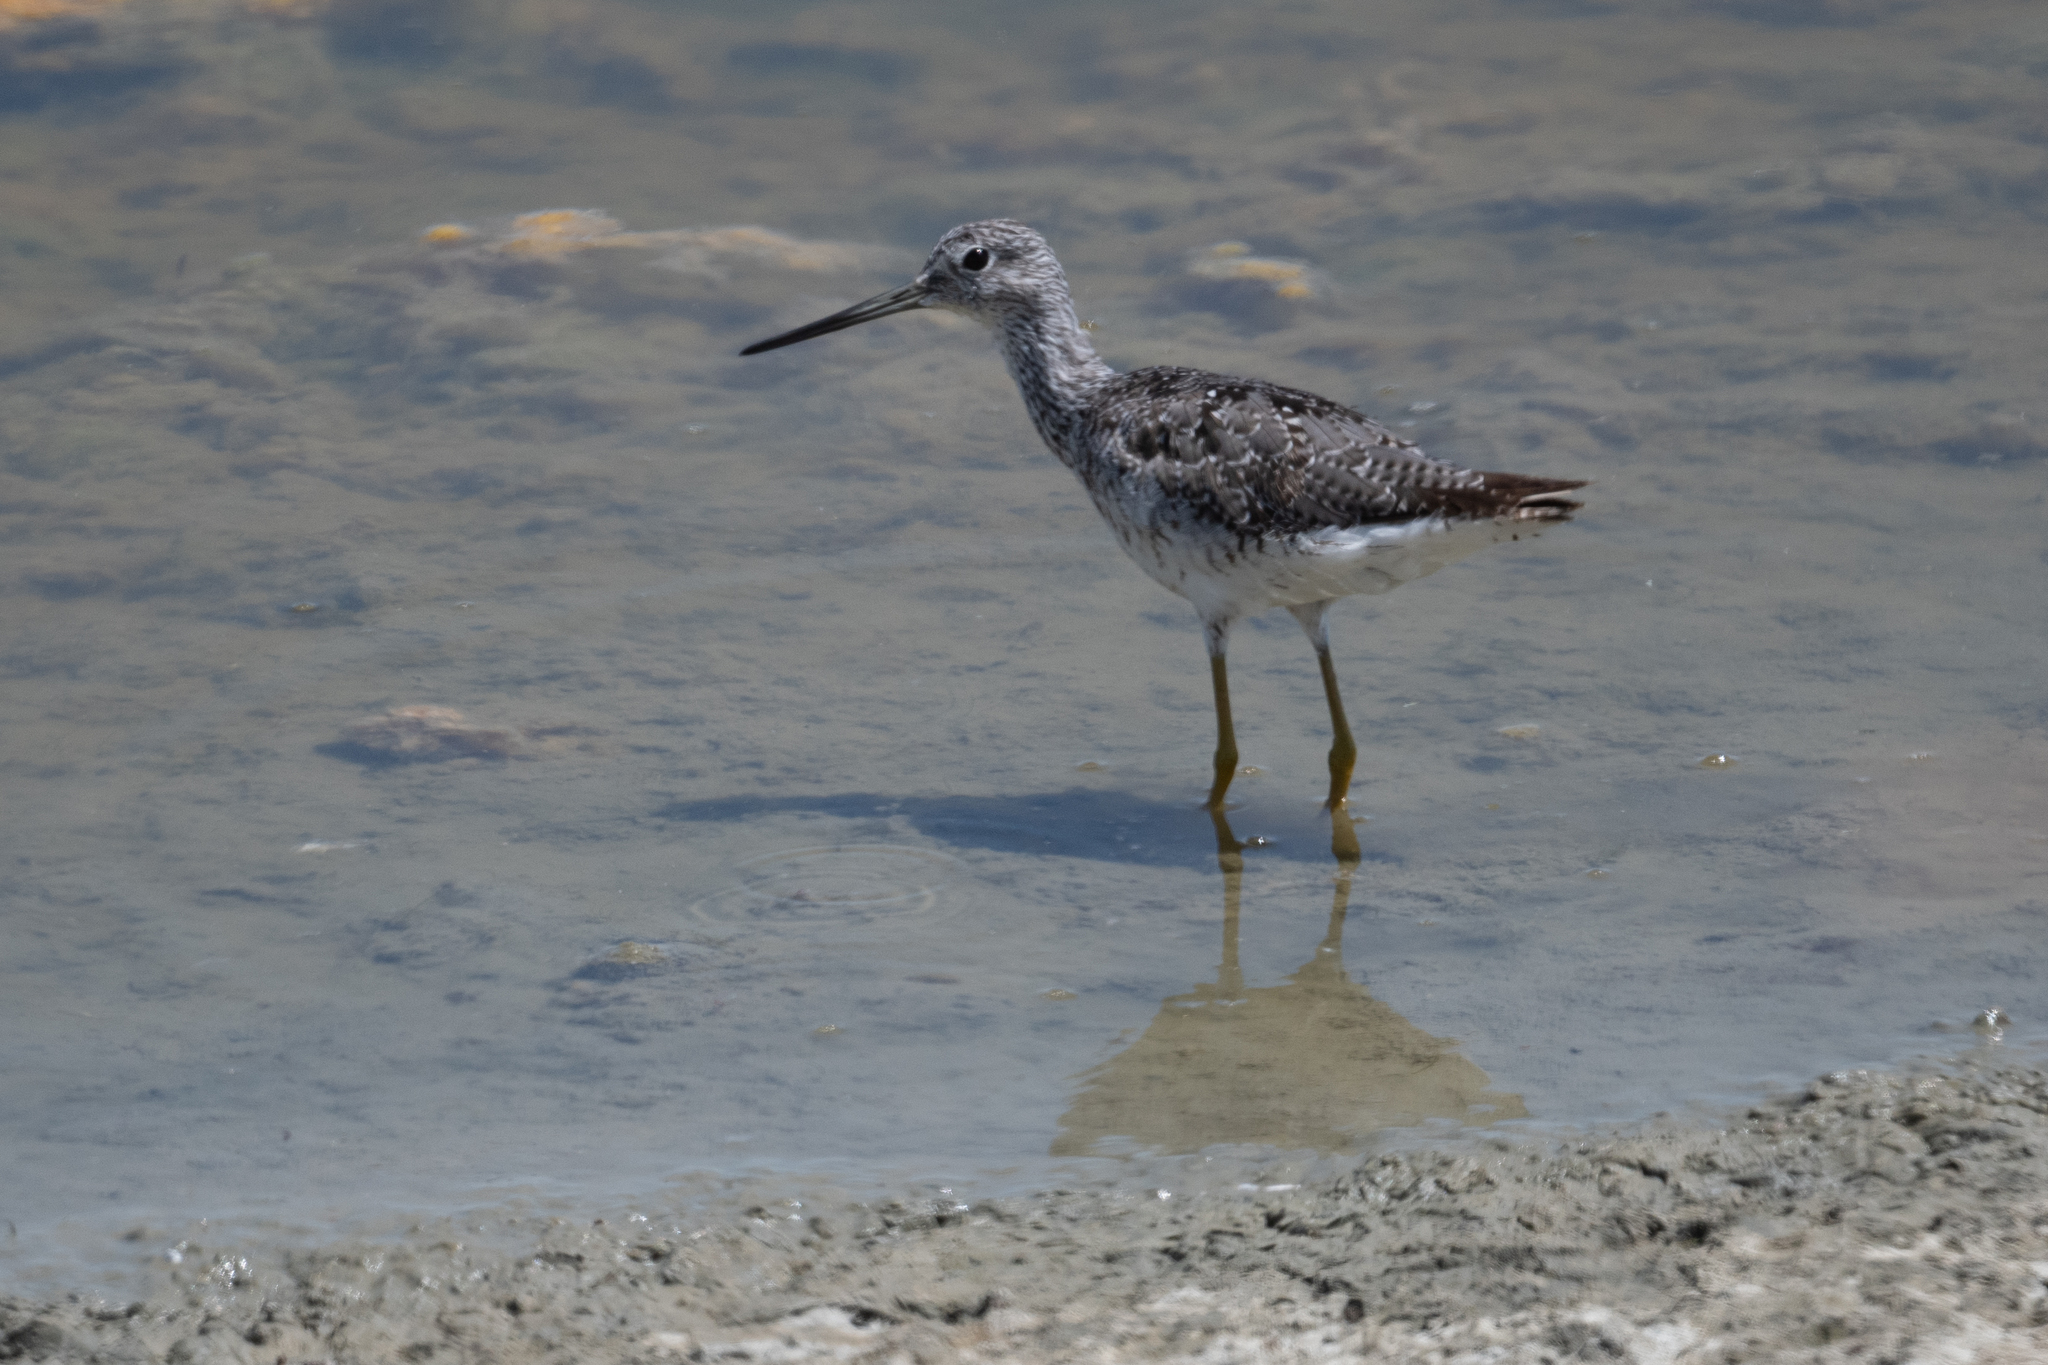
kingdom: Animalia
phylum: Chordata
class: Aves
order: Charadriiformes
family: Scolopacidae
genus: Tringa
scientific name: Tringa melanoleuca
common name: Greater yellowlegs
